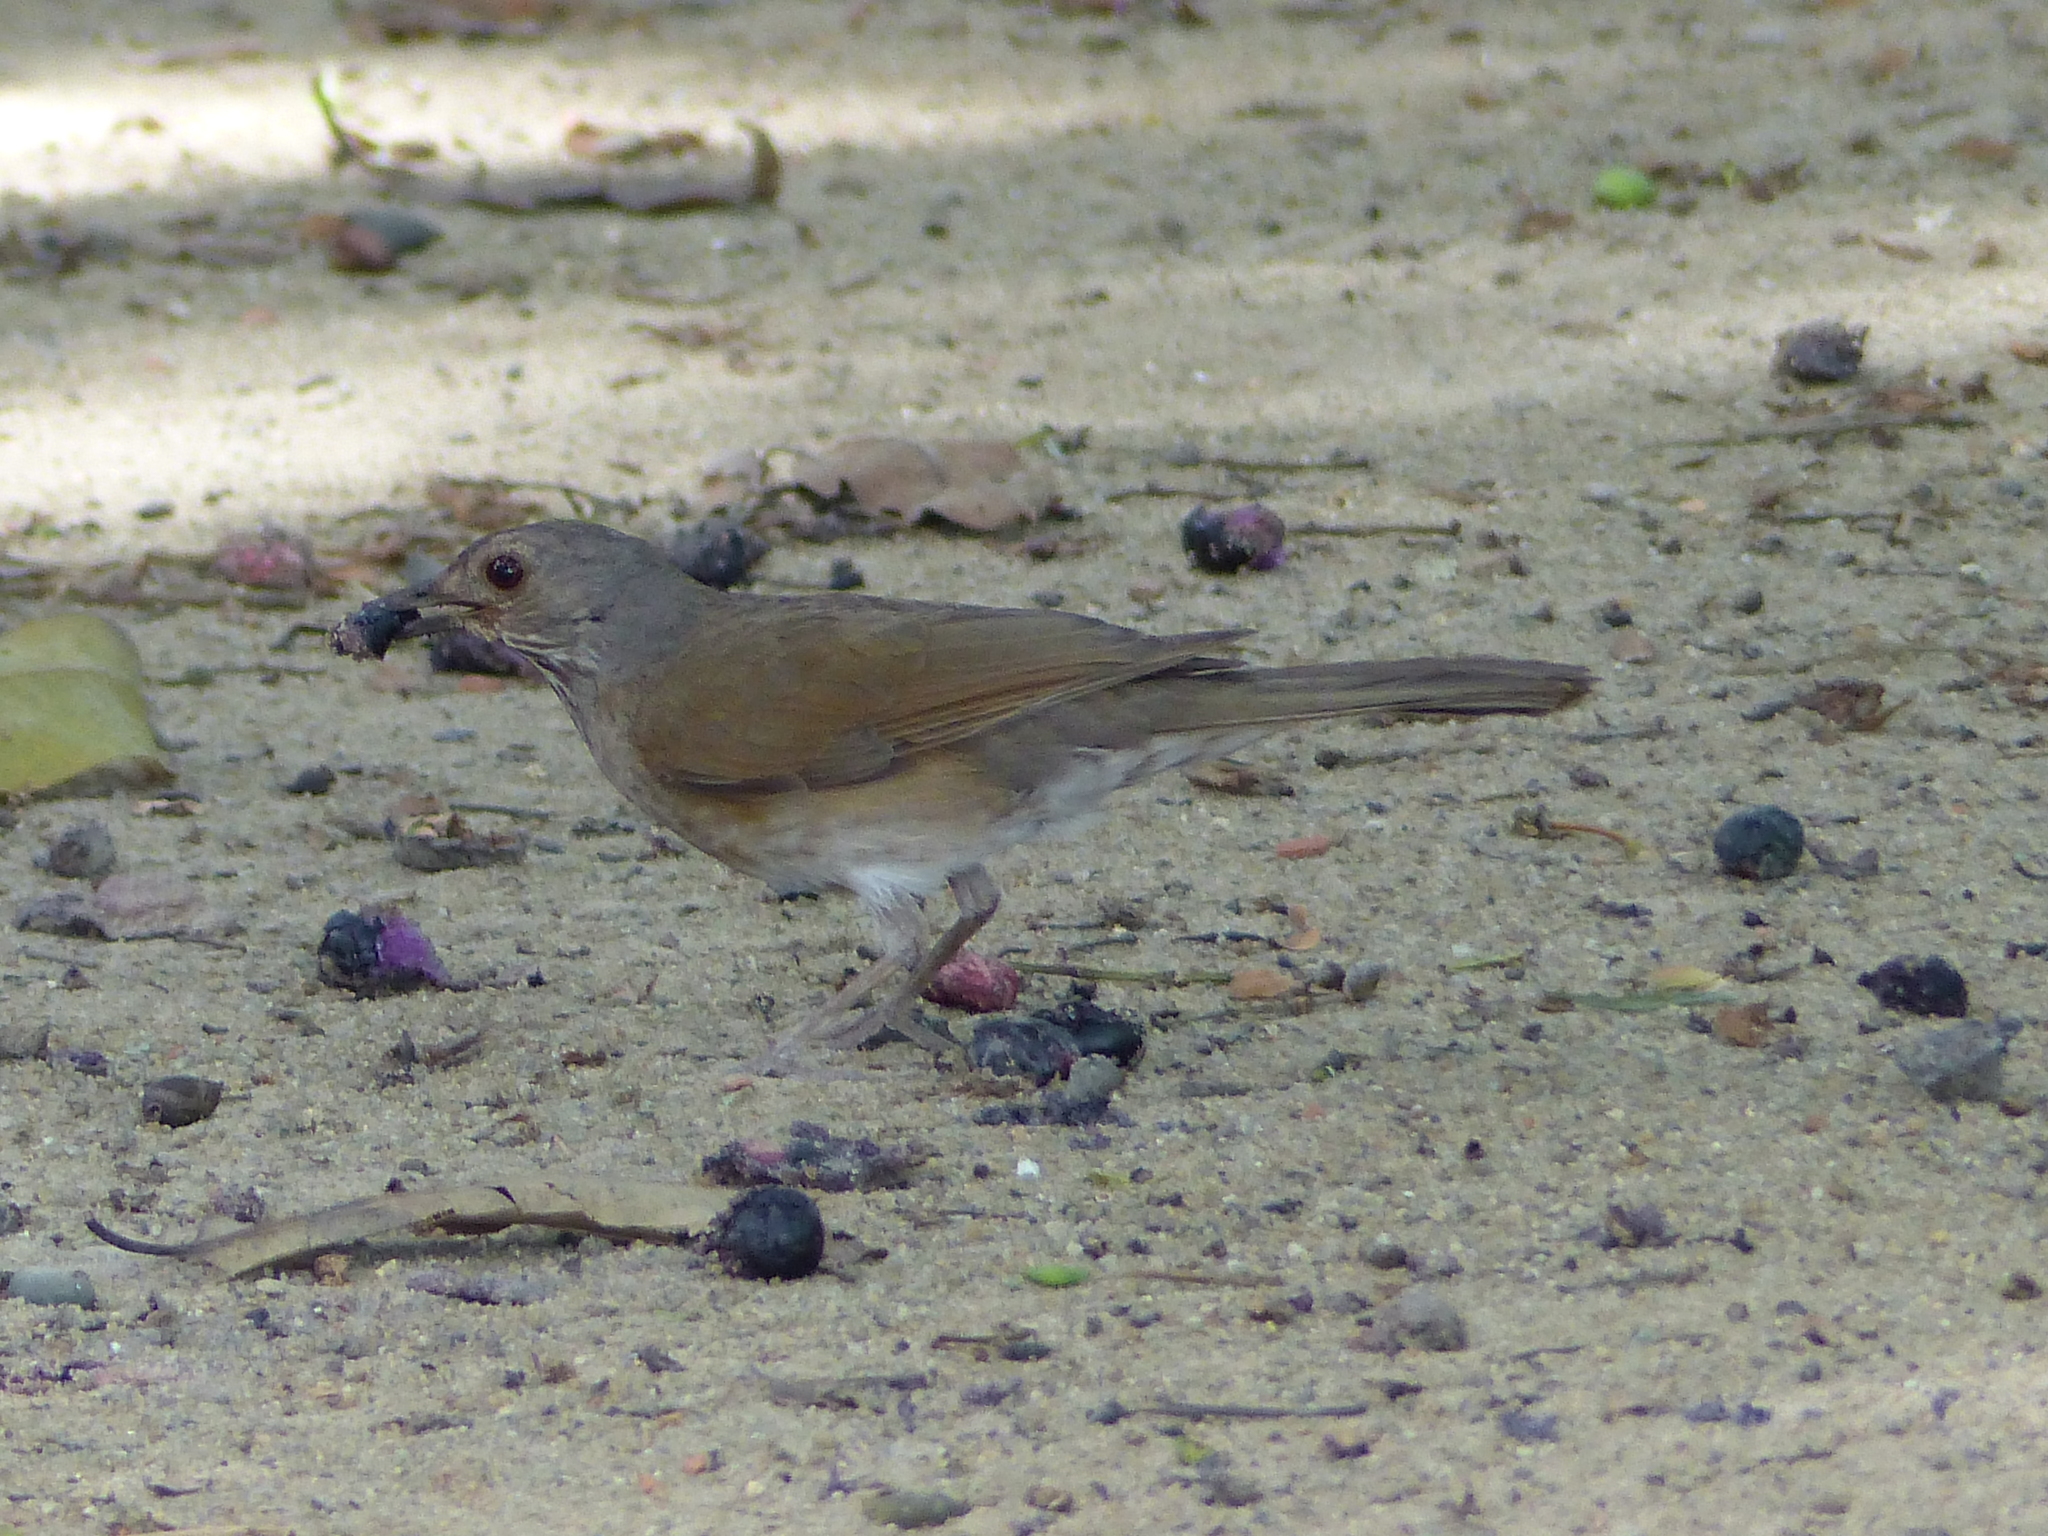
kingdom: Animalia
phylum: Chordata
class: Aves
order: Passeriformes
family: Turdidae
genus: Turdus
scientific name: Turdus leucomelas
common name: Pale-breasted thrush
